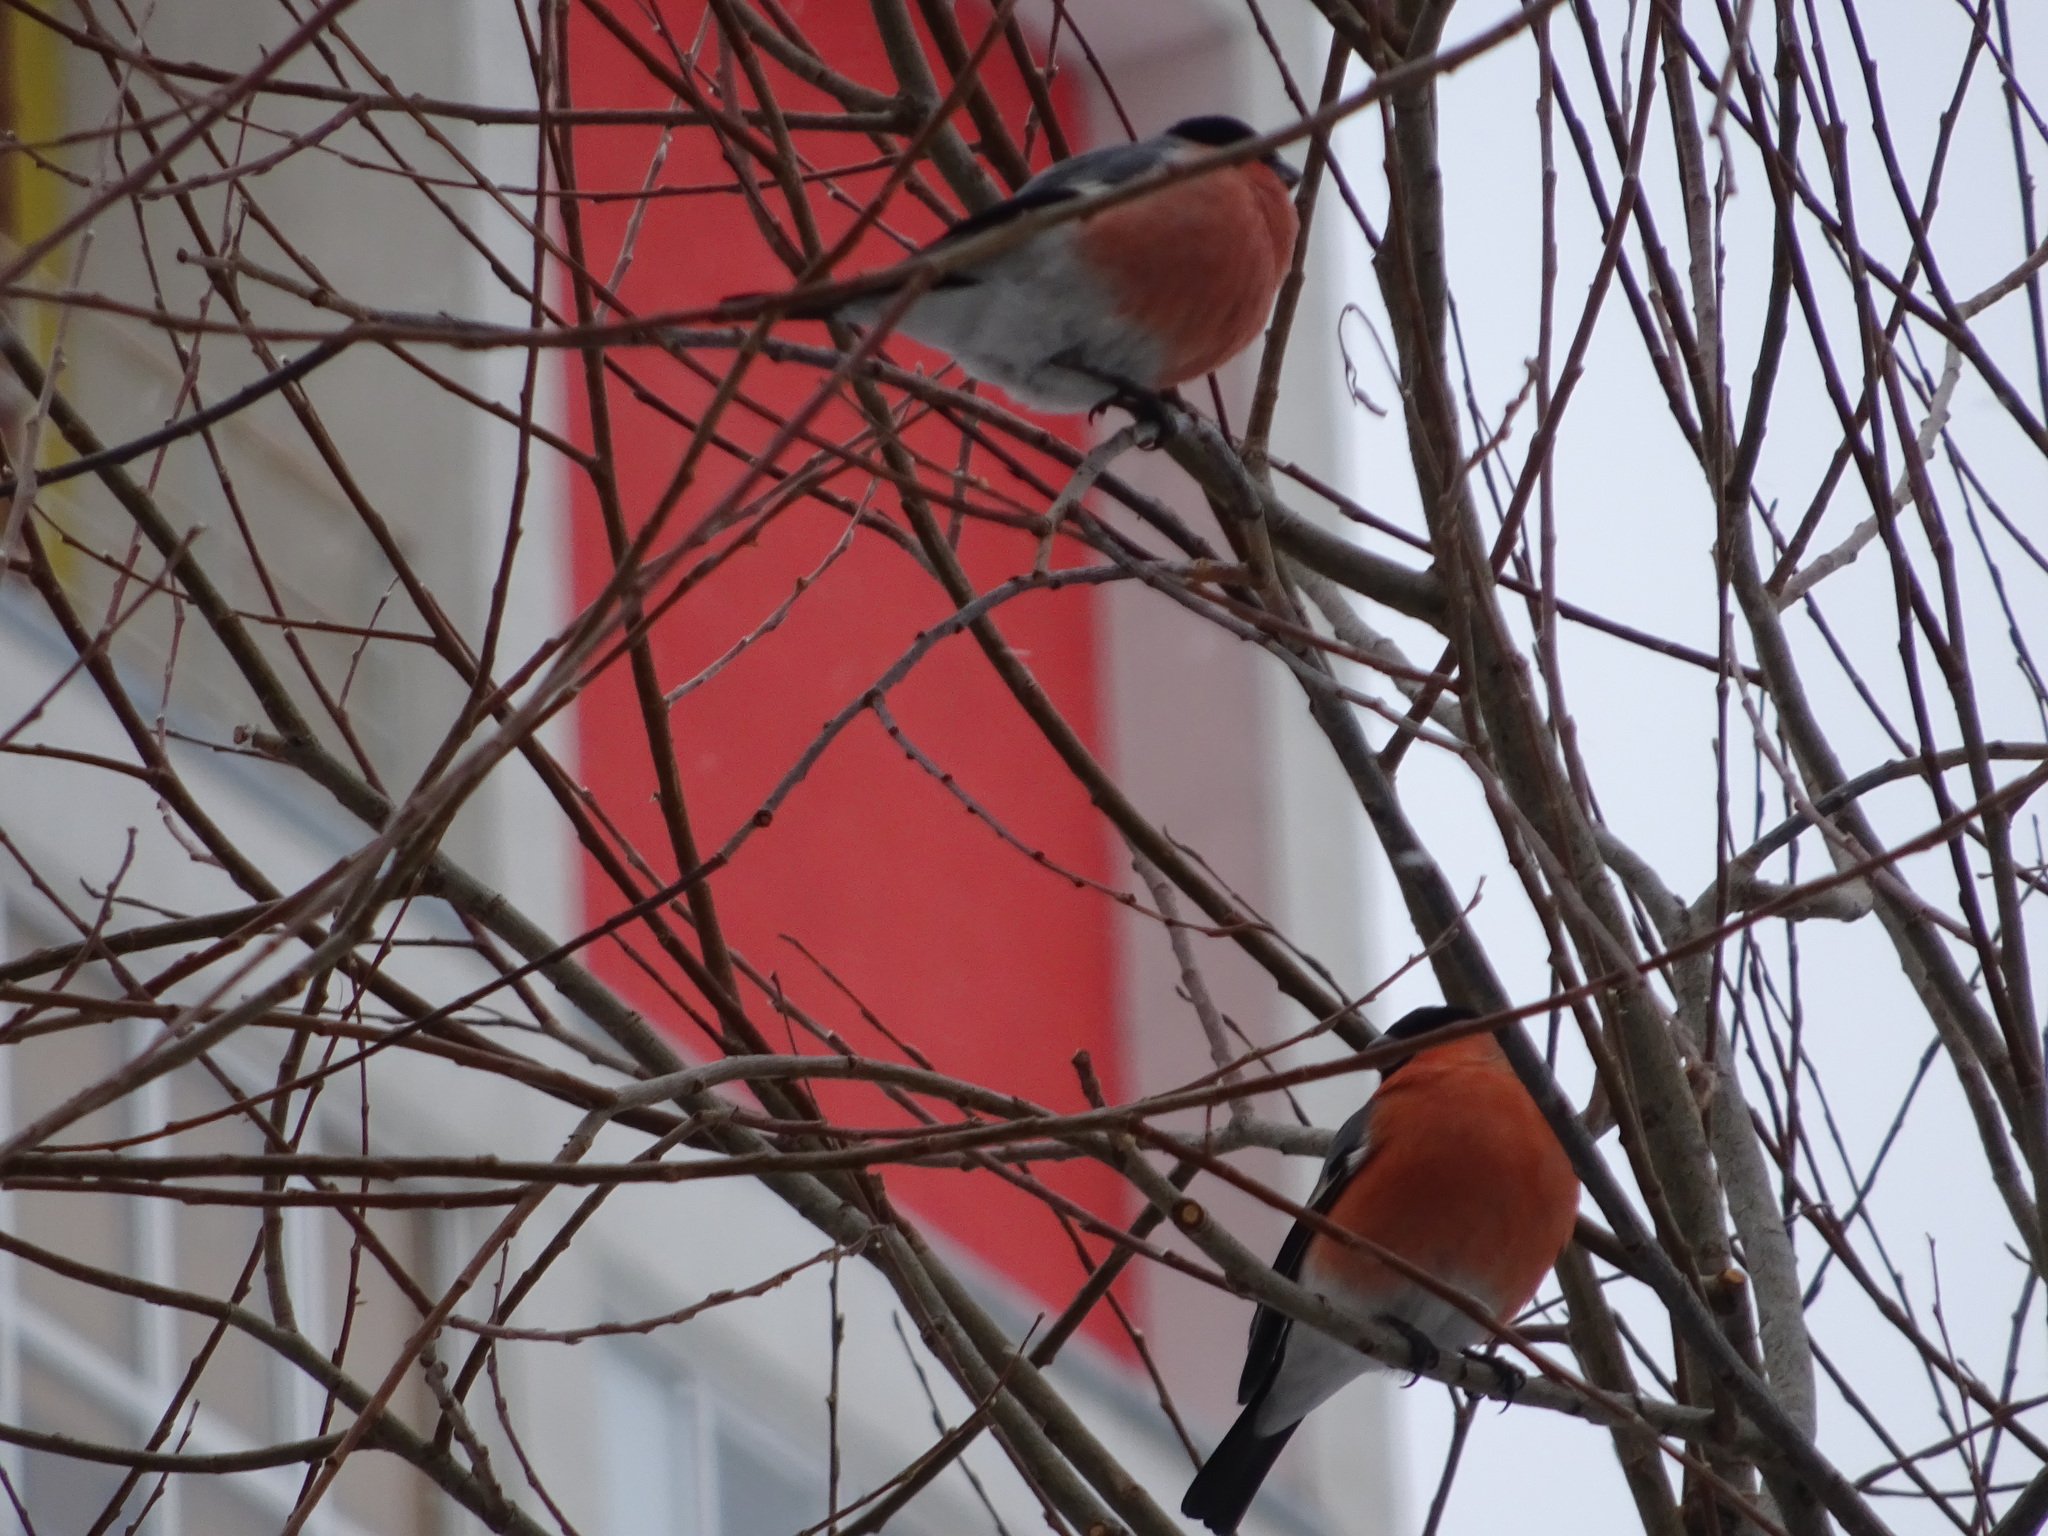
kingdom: Animalia
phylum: Chordata
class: Aves
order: Passeriformes
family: Fringillidae
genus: Pyrrhula
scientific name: Pyrrhula pyrrhula
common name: Eurasian bullfinch
